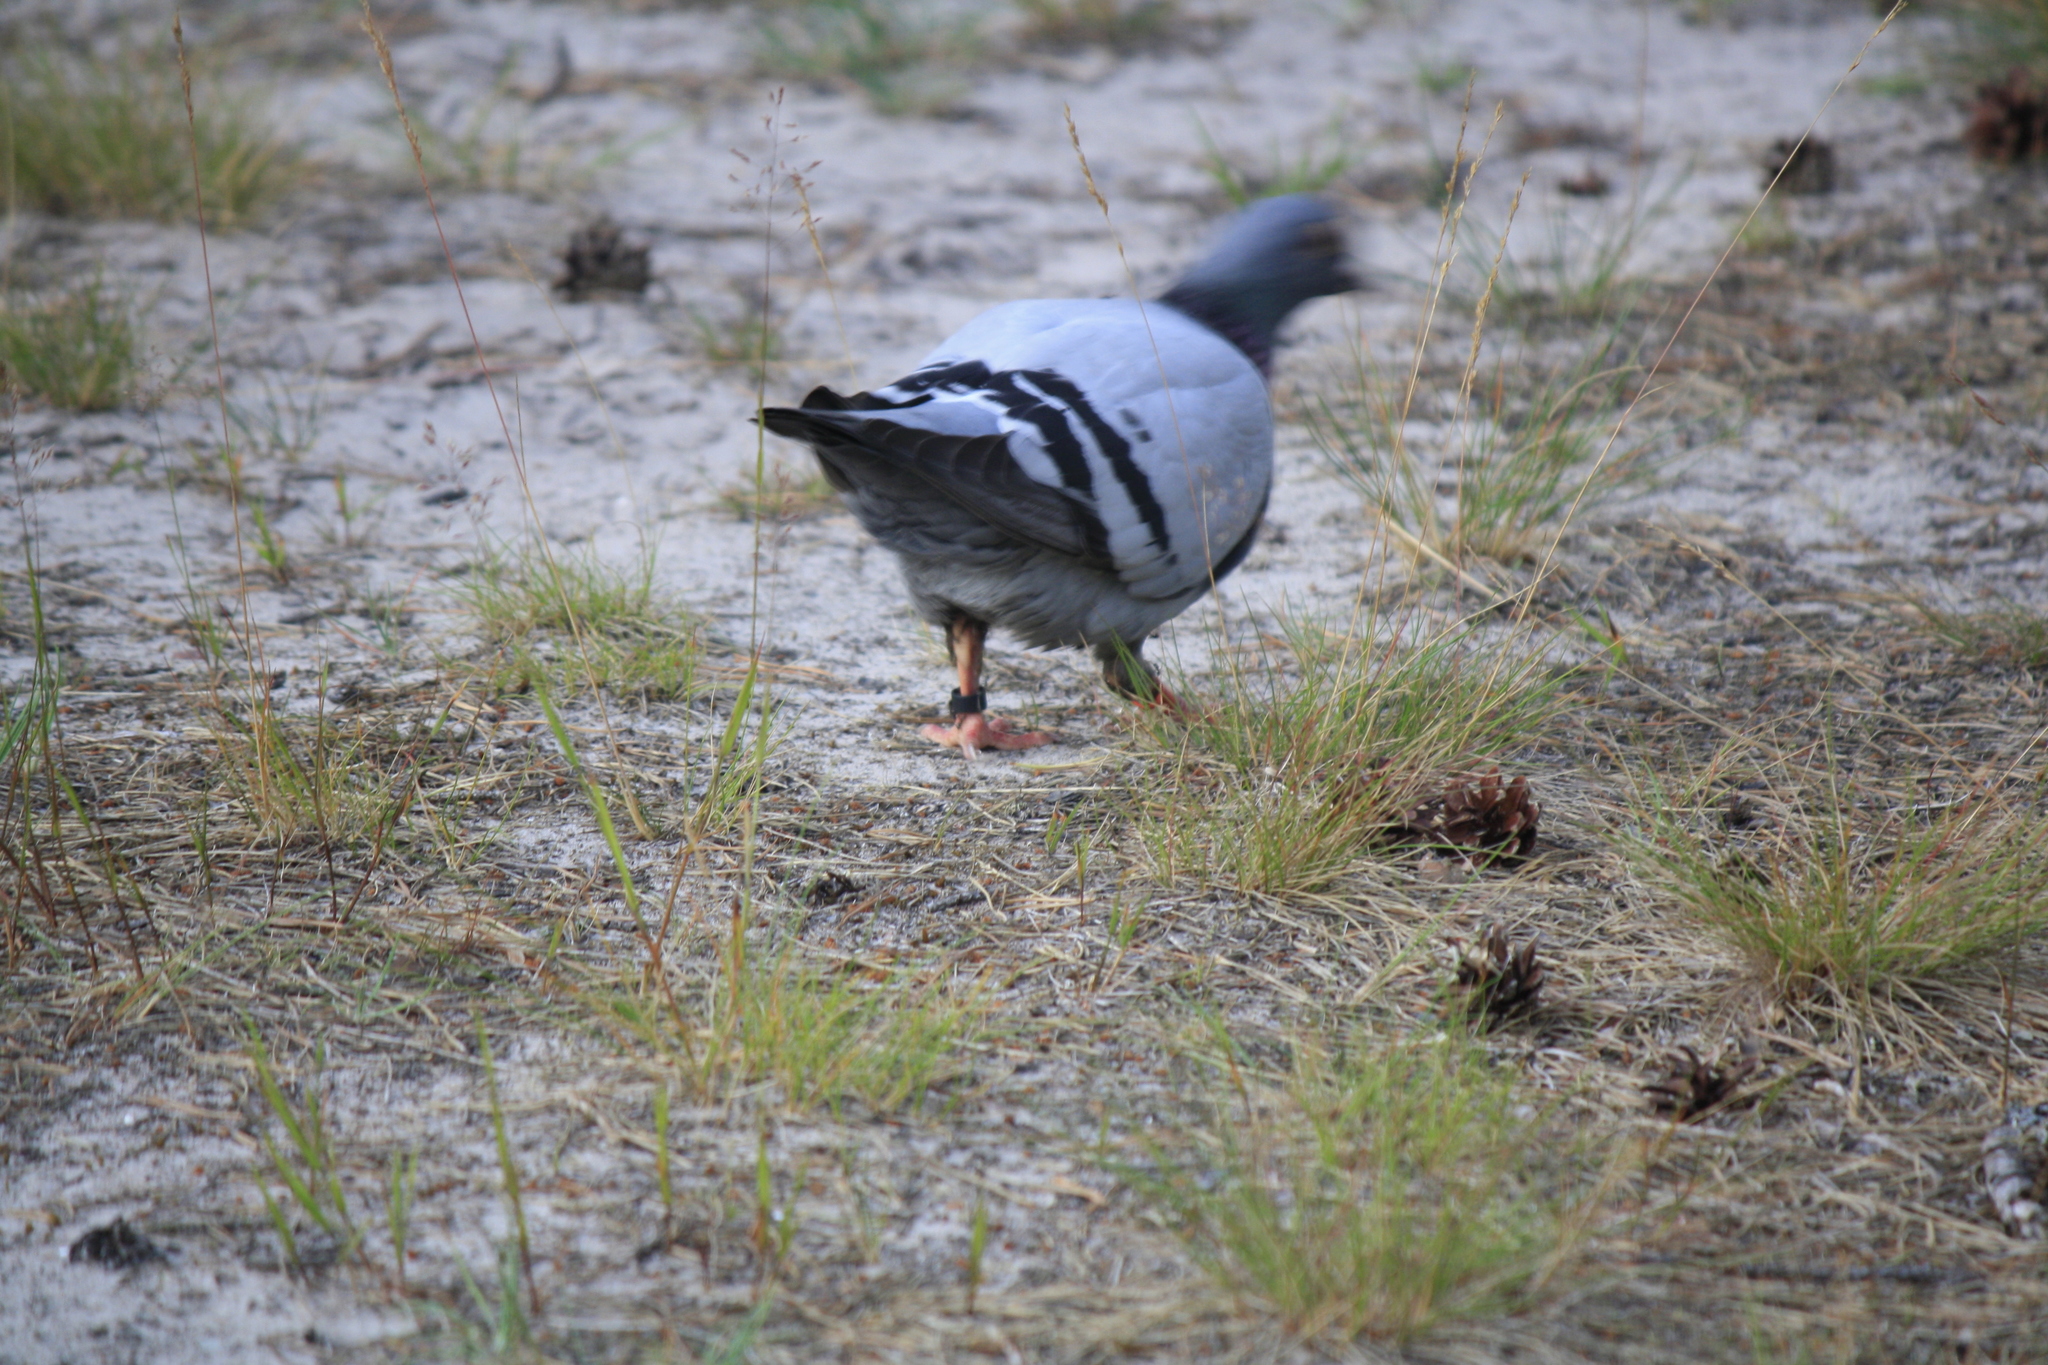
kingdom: Animalia
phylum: Chordata
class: Aves
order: Columbiformes
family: Columbidae
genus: Columba
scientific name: Columba livia
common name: Rock pigeon
